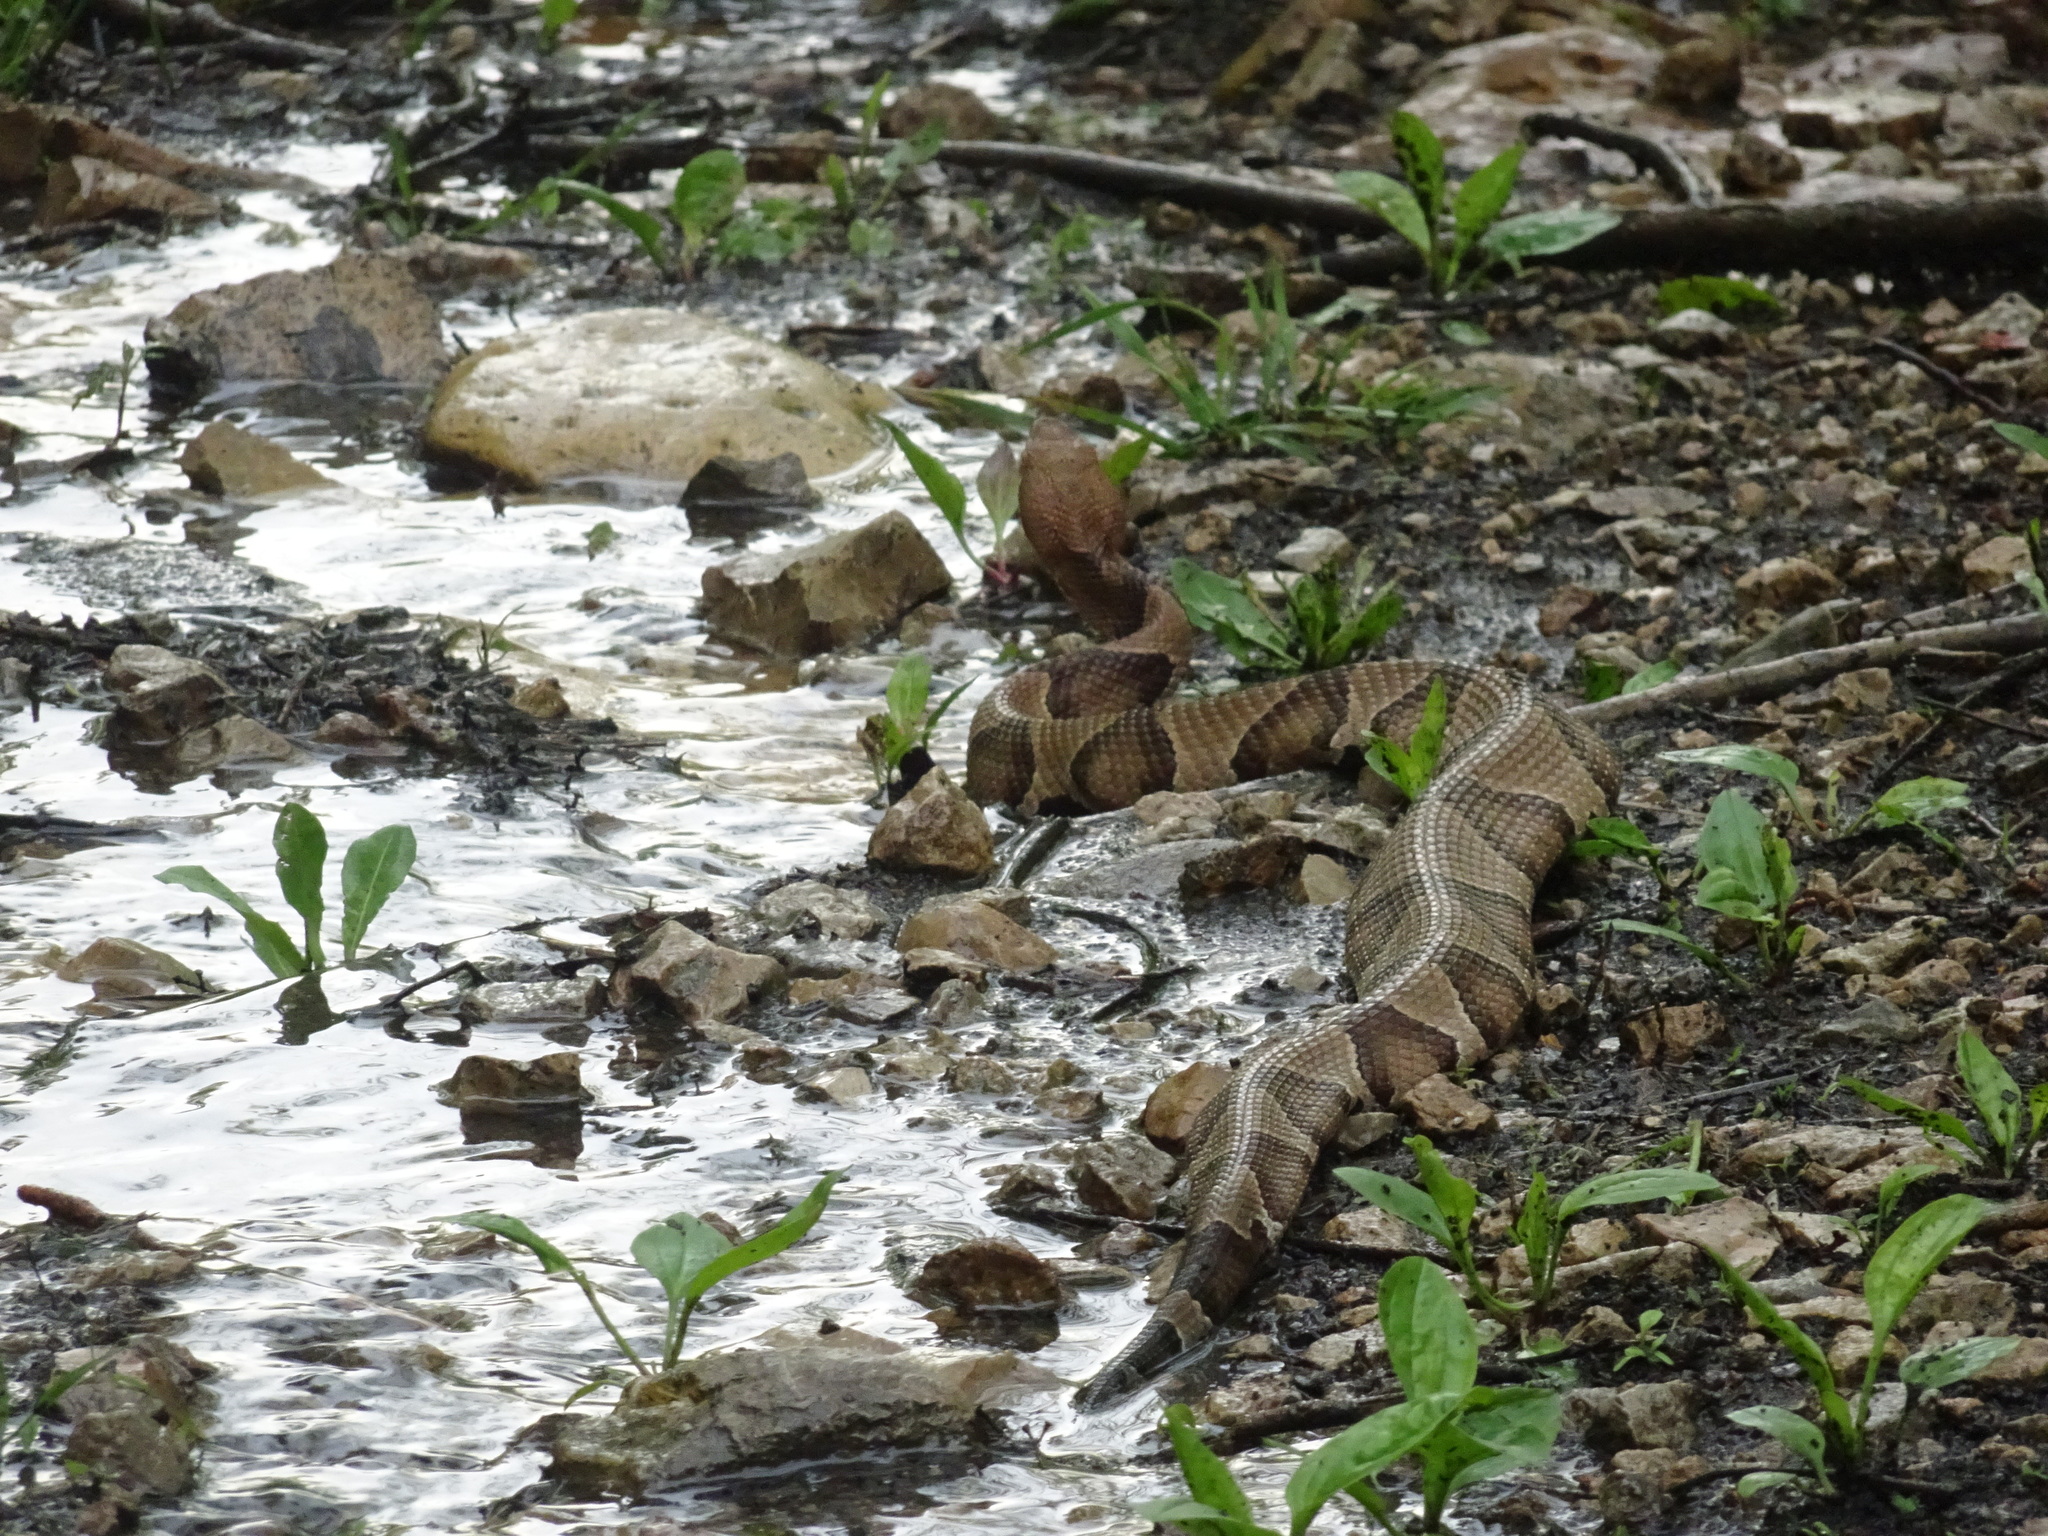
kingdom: Animalia
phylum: Chordata
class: Squamata
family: Viperidae
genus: Agkistrodon
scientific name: Agkistrodon contortrix
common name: Northern copperhead
